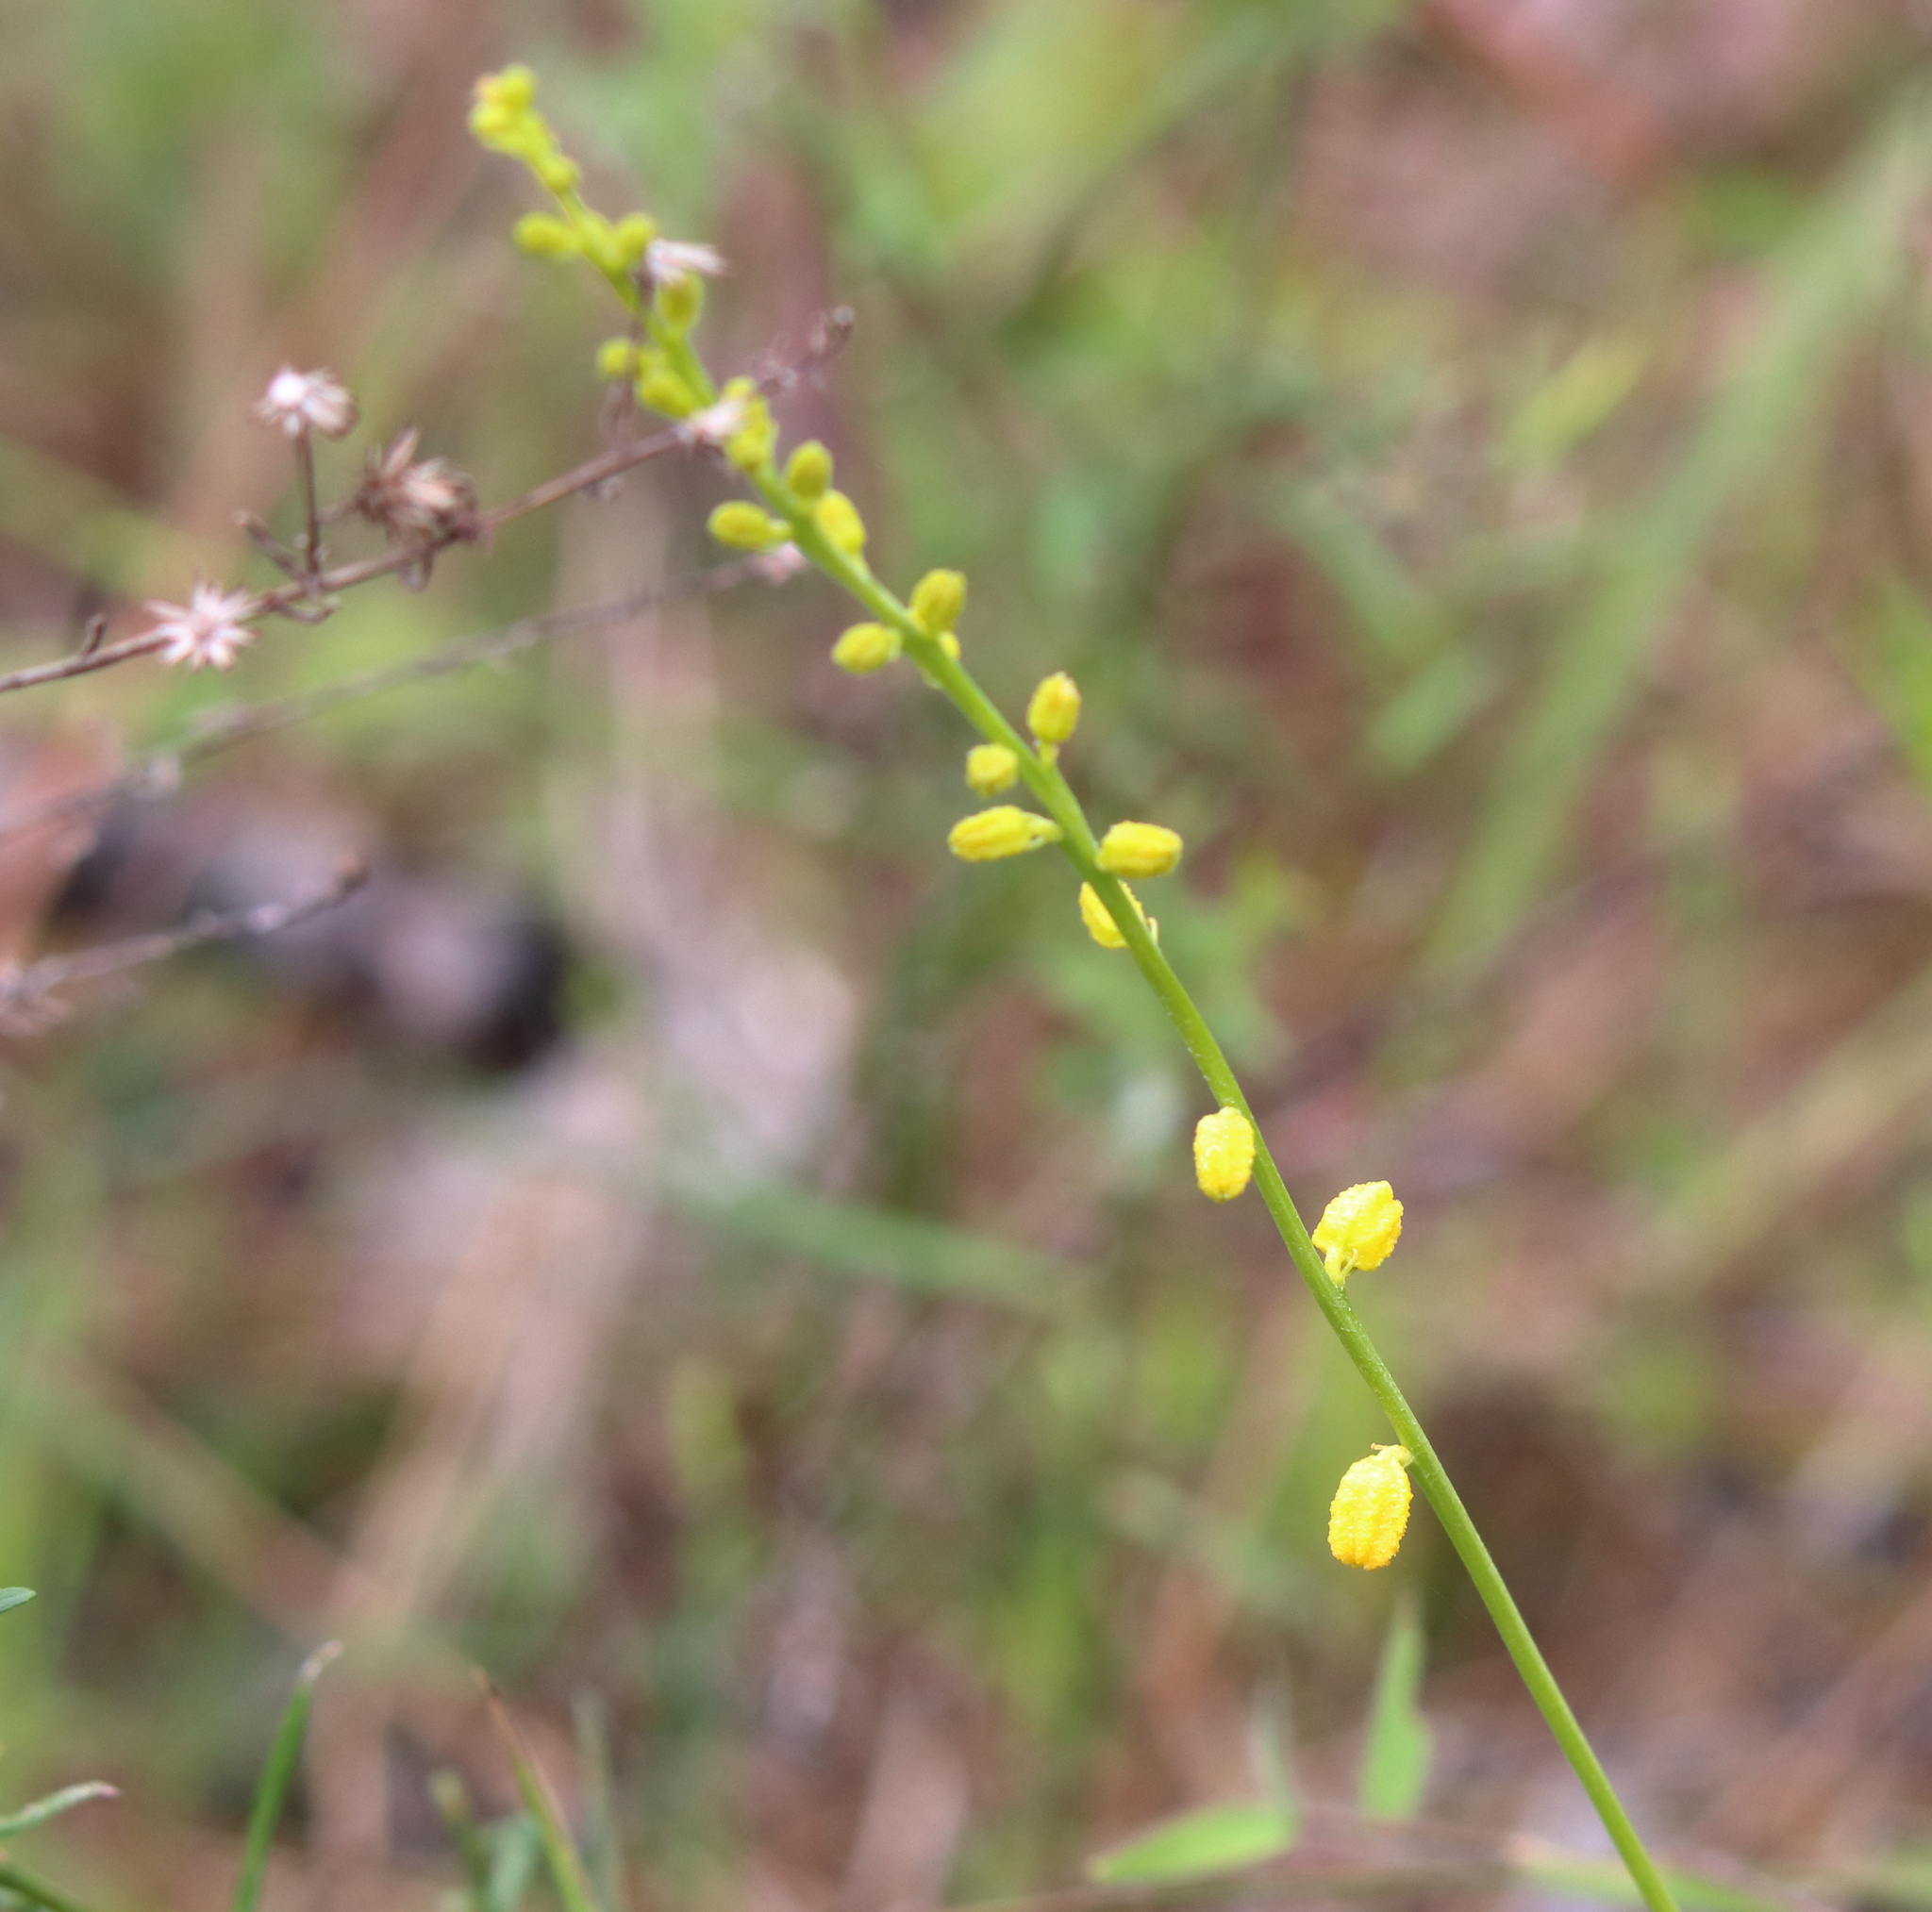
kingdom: Plantae
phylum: Tracheophyta
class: Liliopsida
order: Dioscoreales
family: Nartheciaceae
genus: Aletris
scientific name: Aletris aurea
